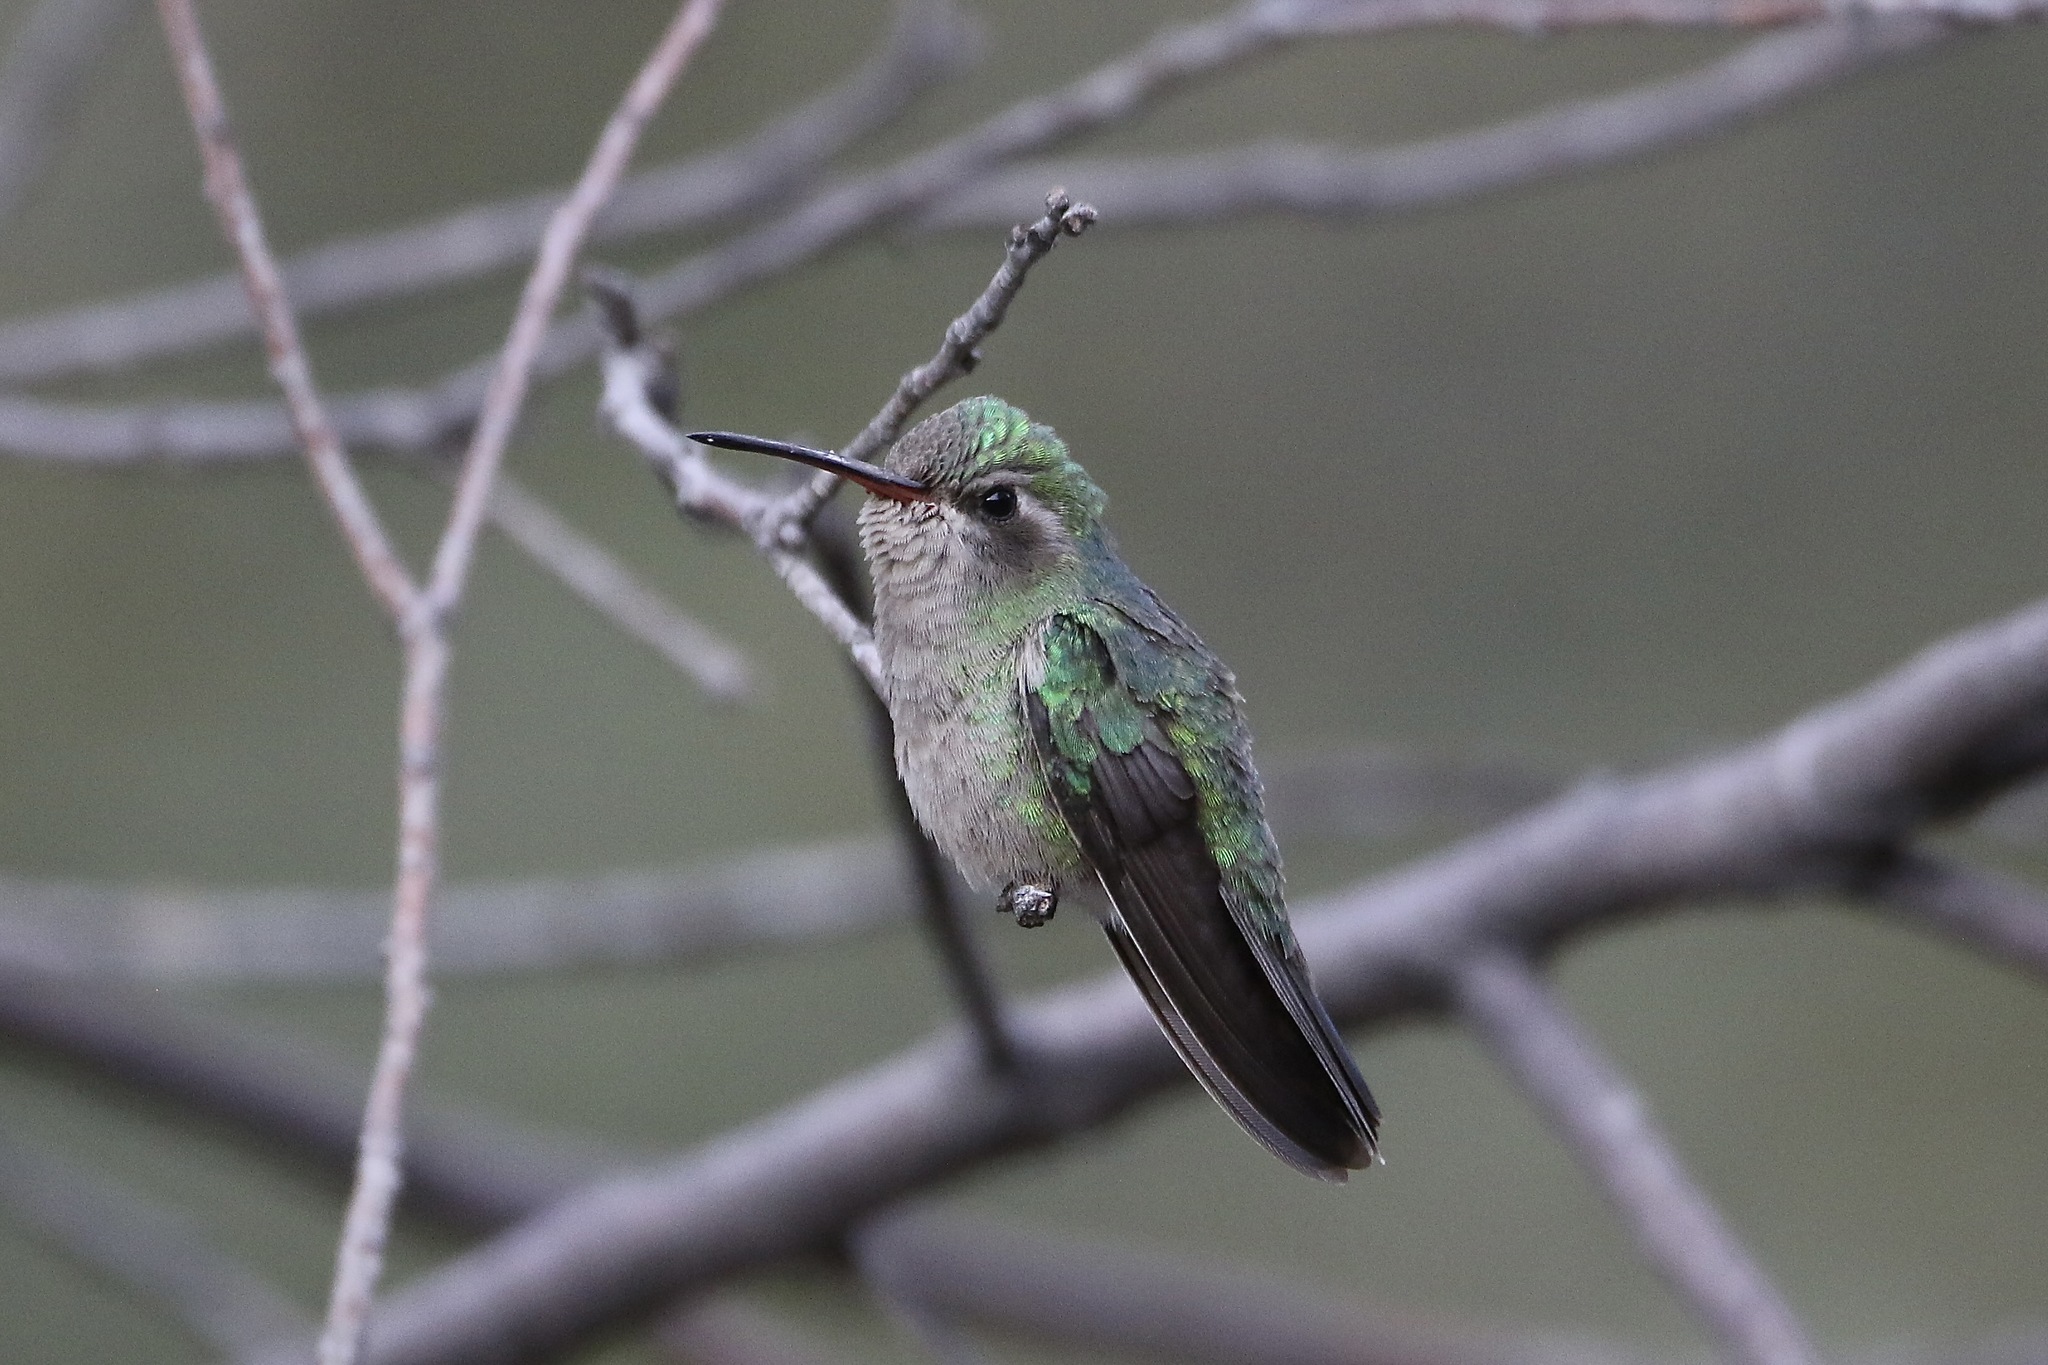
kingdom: Animalia
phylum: Chordata
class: Aves
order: Apodiformes
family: Trochilidae
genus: Cynanthus
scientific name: Cynanthus latirostris
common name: Broad-billed hummingbird
